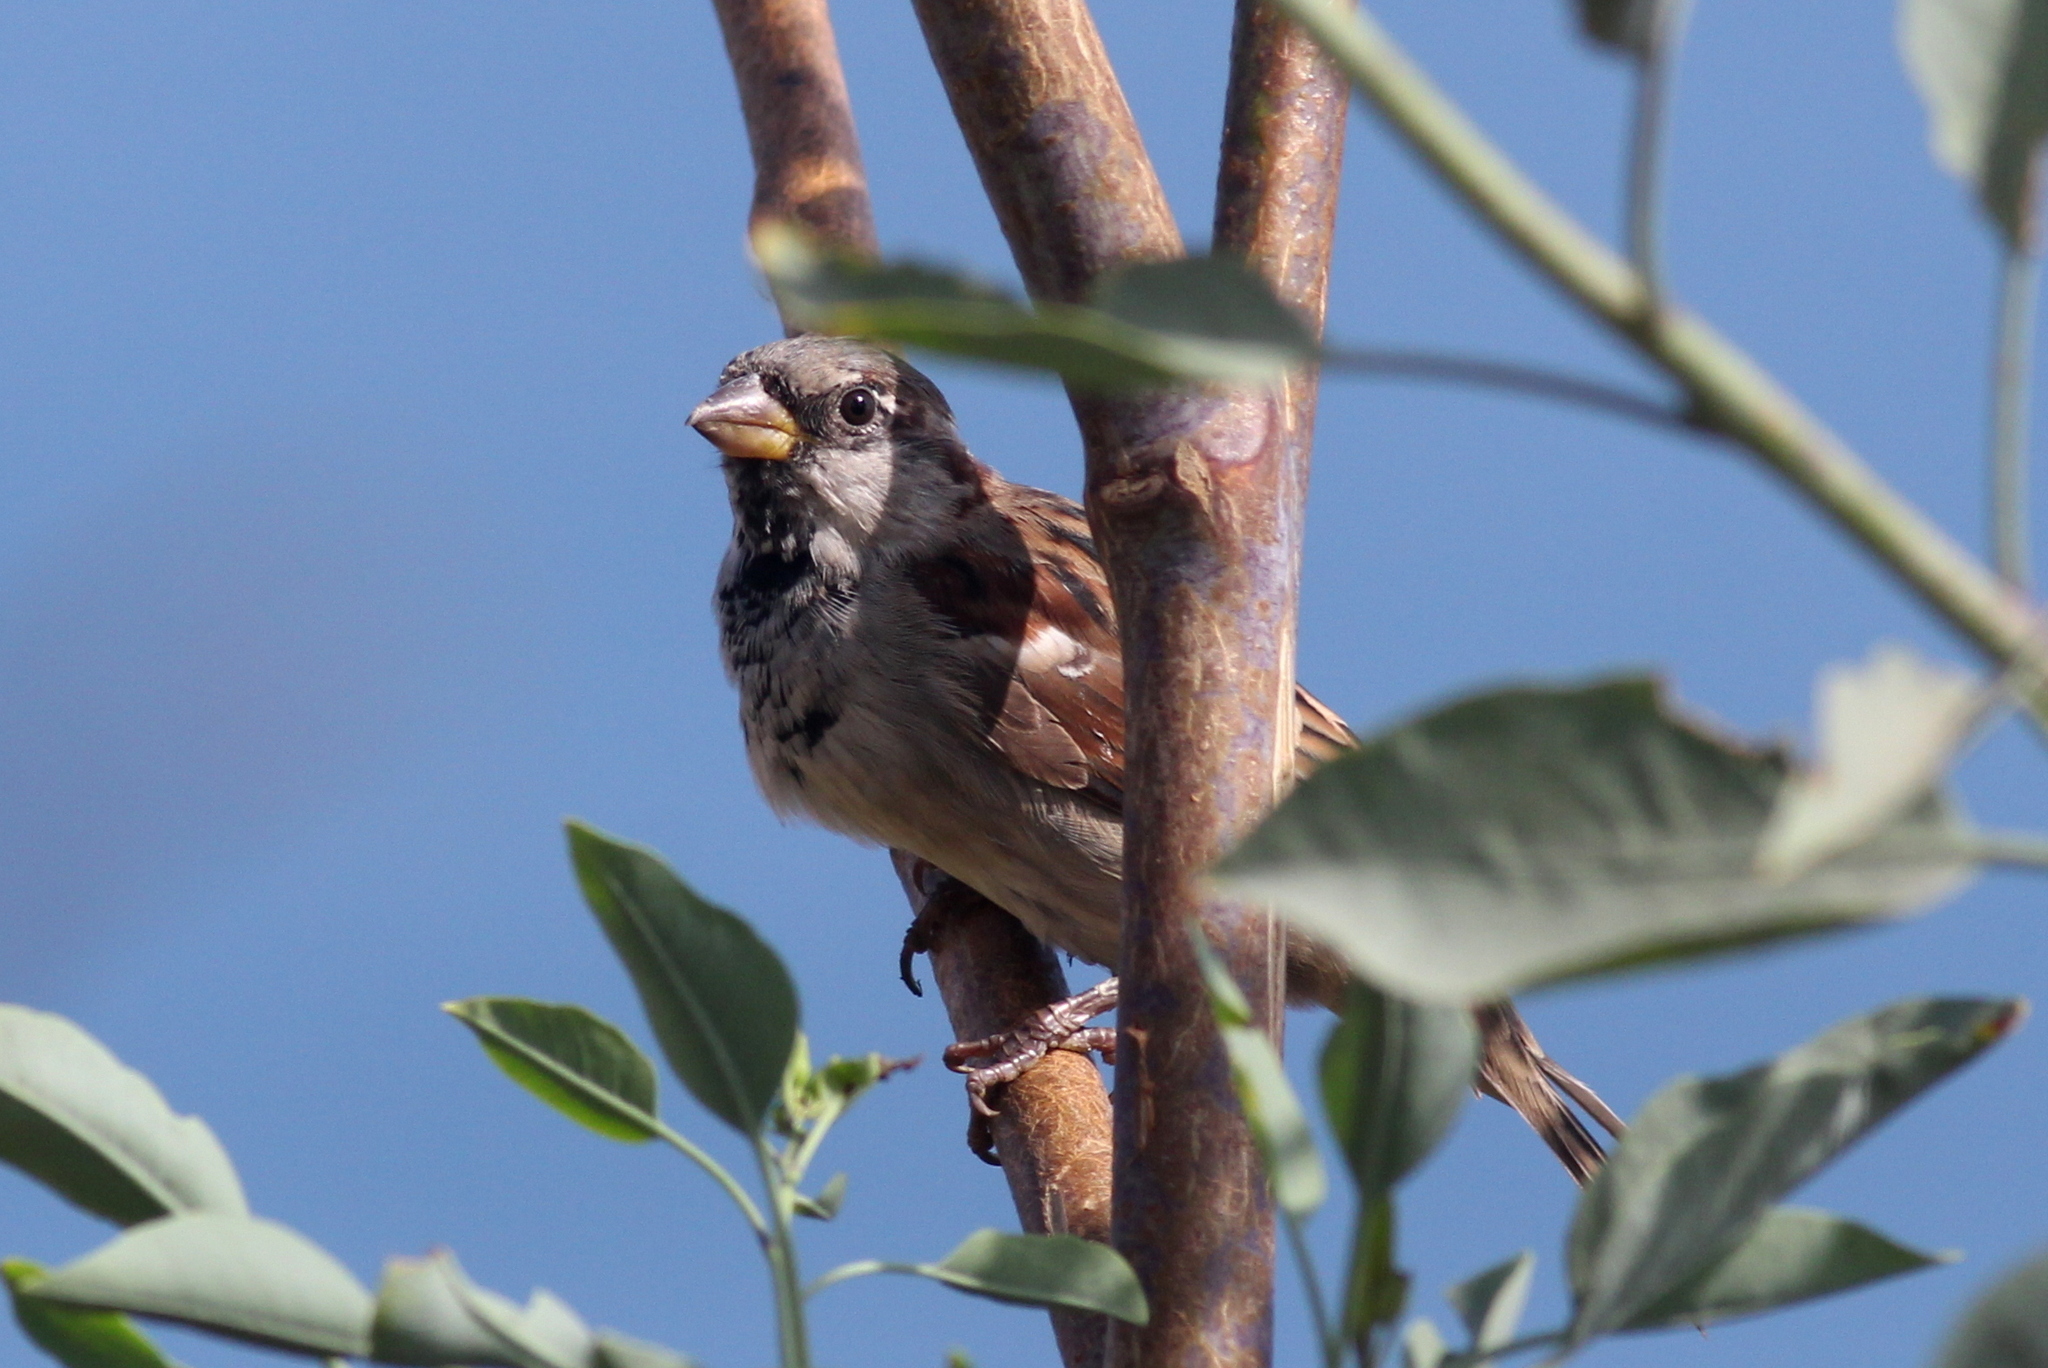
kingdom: Animalia
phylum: Chordata
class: Aves
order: Passeriformes
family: Passeridae
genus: Passer
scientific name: Passer domesticus
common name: House sparrow
